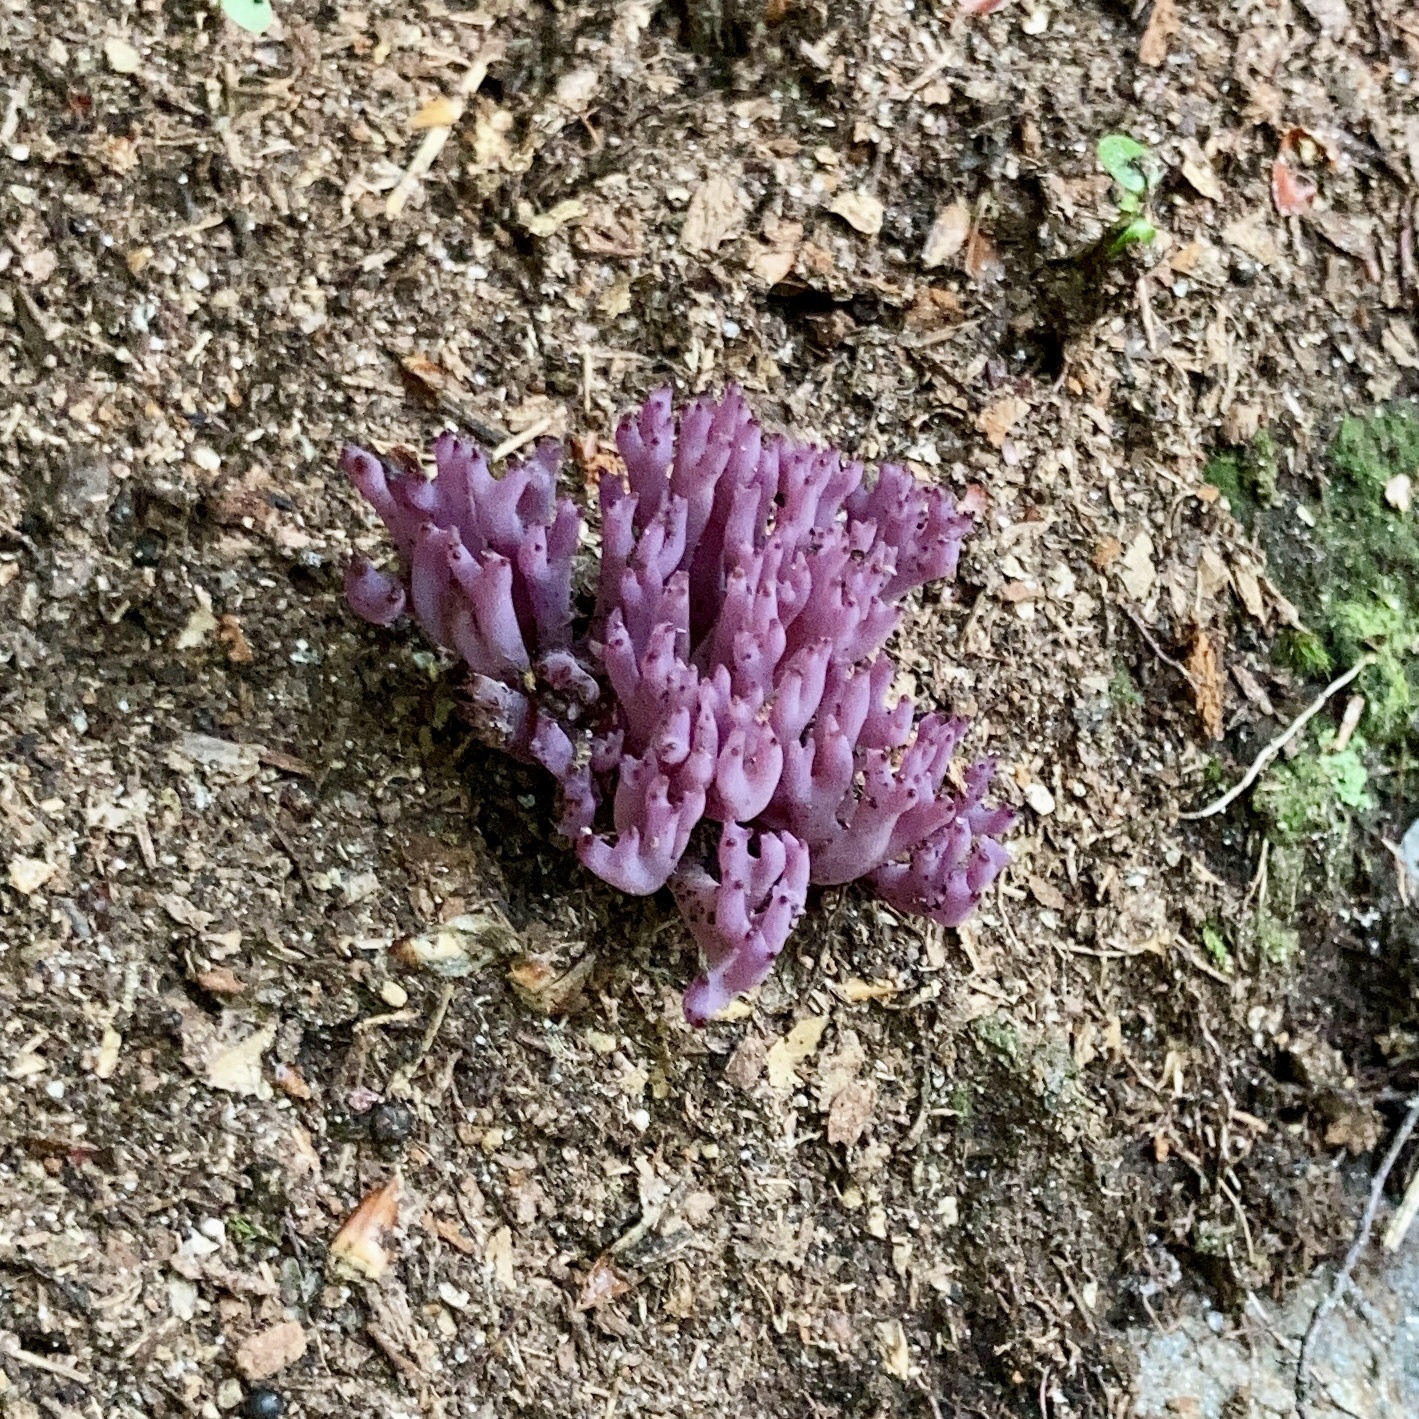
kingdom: Fungi
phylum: Basidiomycota
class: Agaricomycetes
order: Agaricales
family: Clavariaceae
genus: Clavaria
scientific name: Clavaria zollingeri
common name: Violet coral
